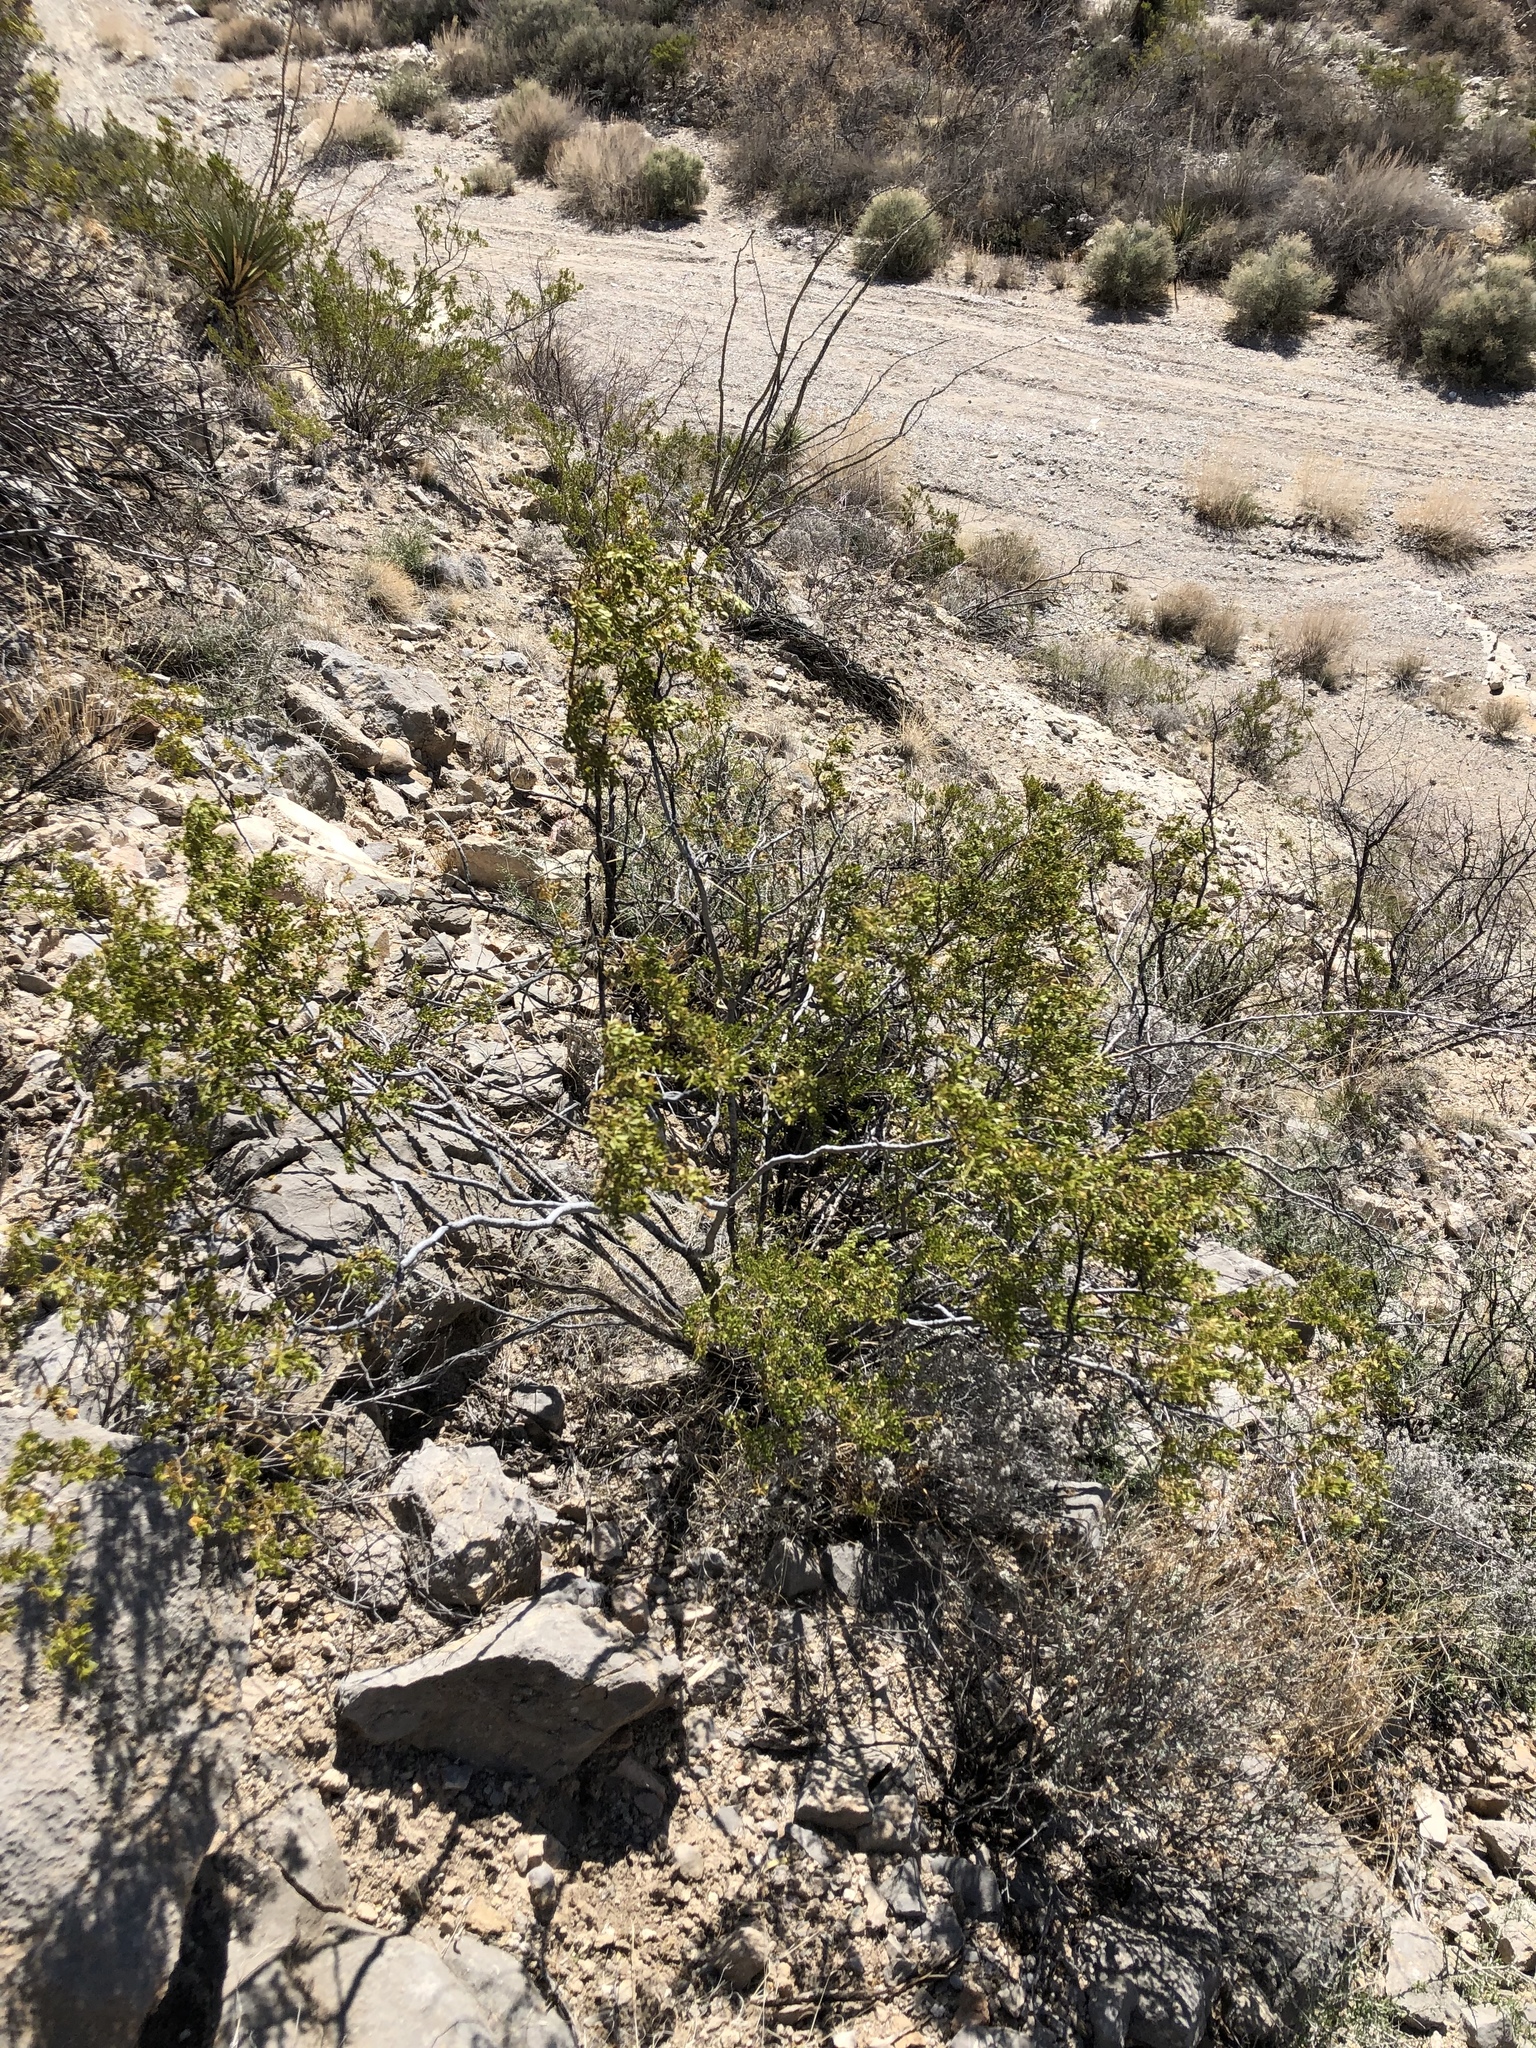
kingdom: Plantae
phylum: Tracheophyta
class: Magnoliopsida
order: Zygophyllales
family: Zygophyllaceae
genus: Larrea
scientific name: Larrea tridentata
